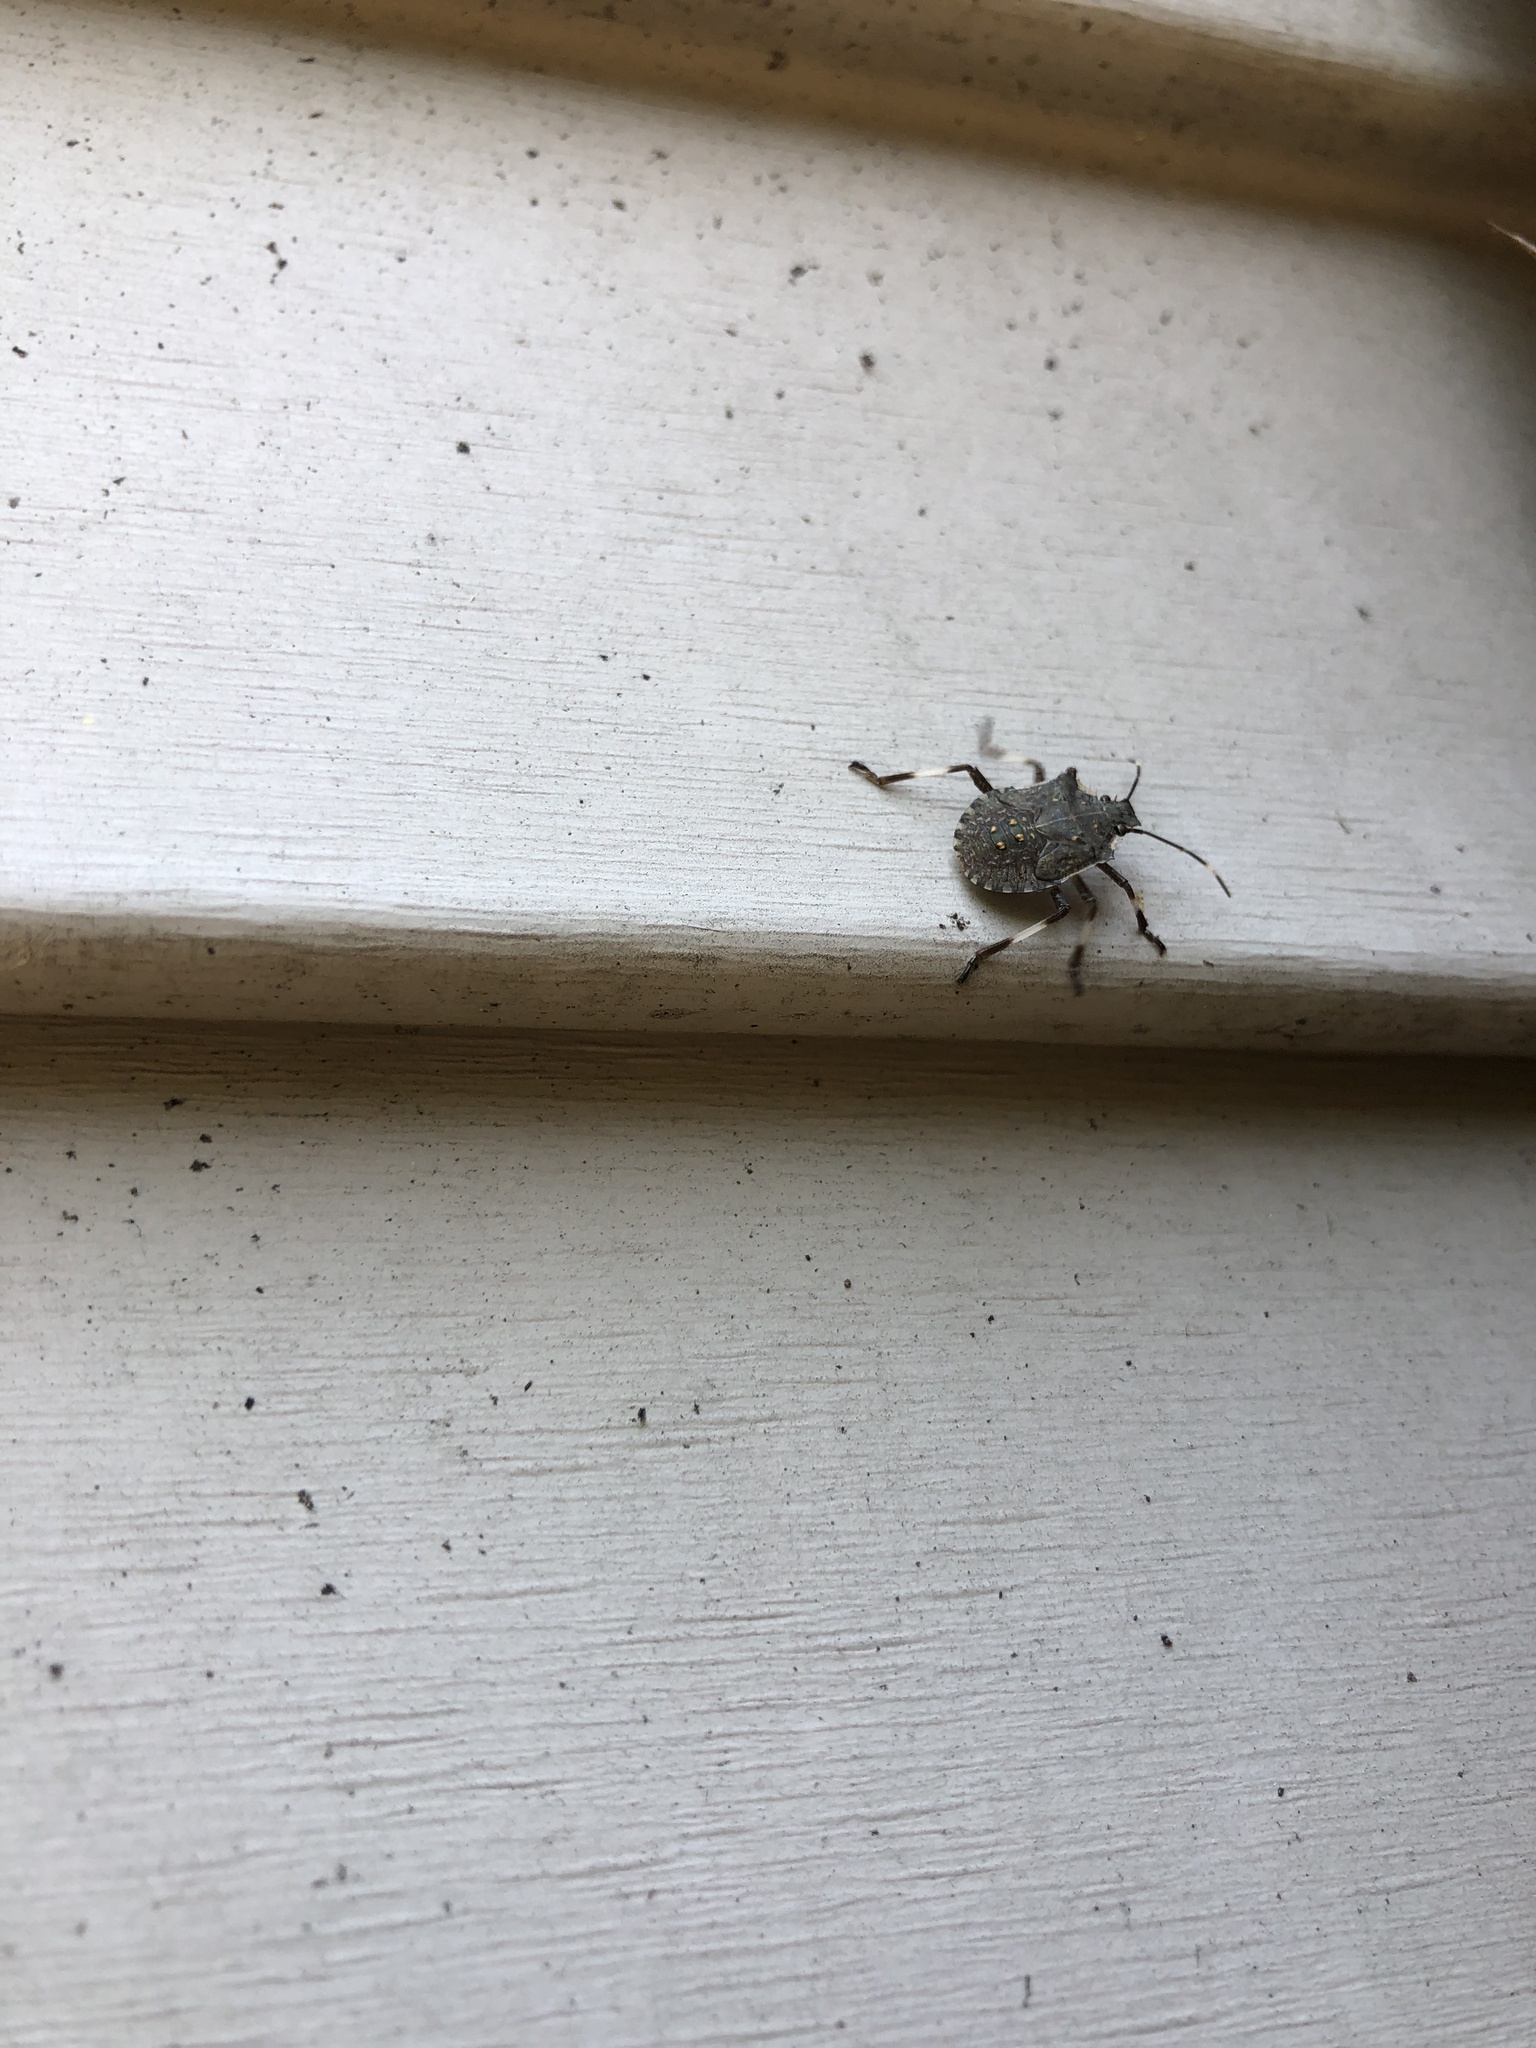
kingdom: Animalia
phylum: Arthropoda
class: Insecta
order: Hemiptera
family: Pentatomidae
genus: Halyomorpha
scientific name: Halyomorpha halys
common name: Brown marmorated stink bug
